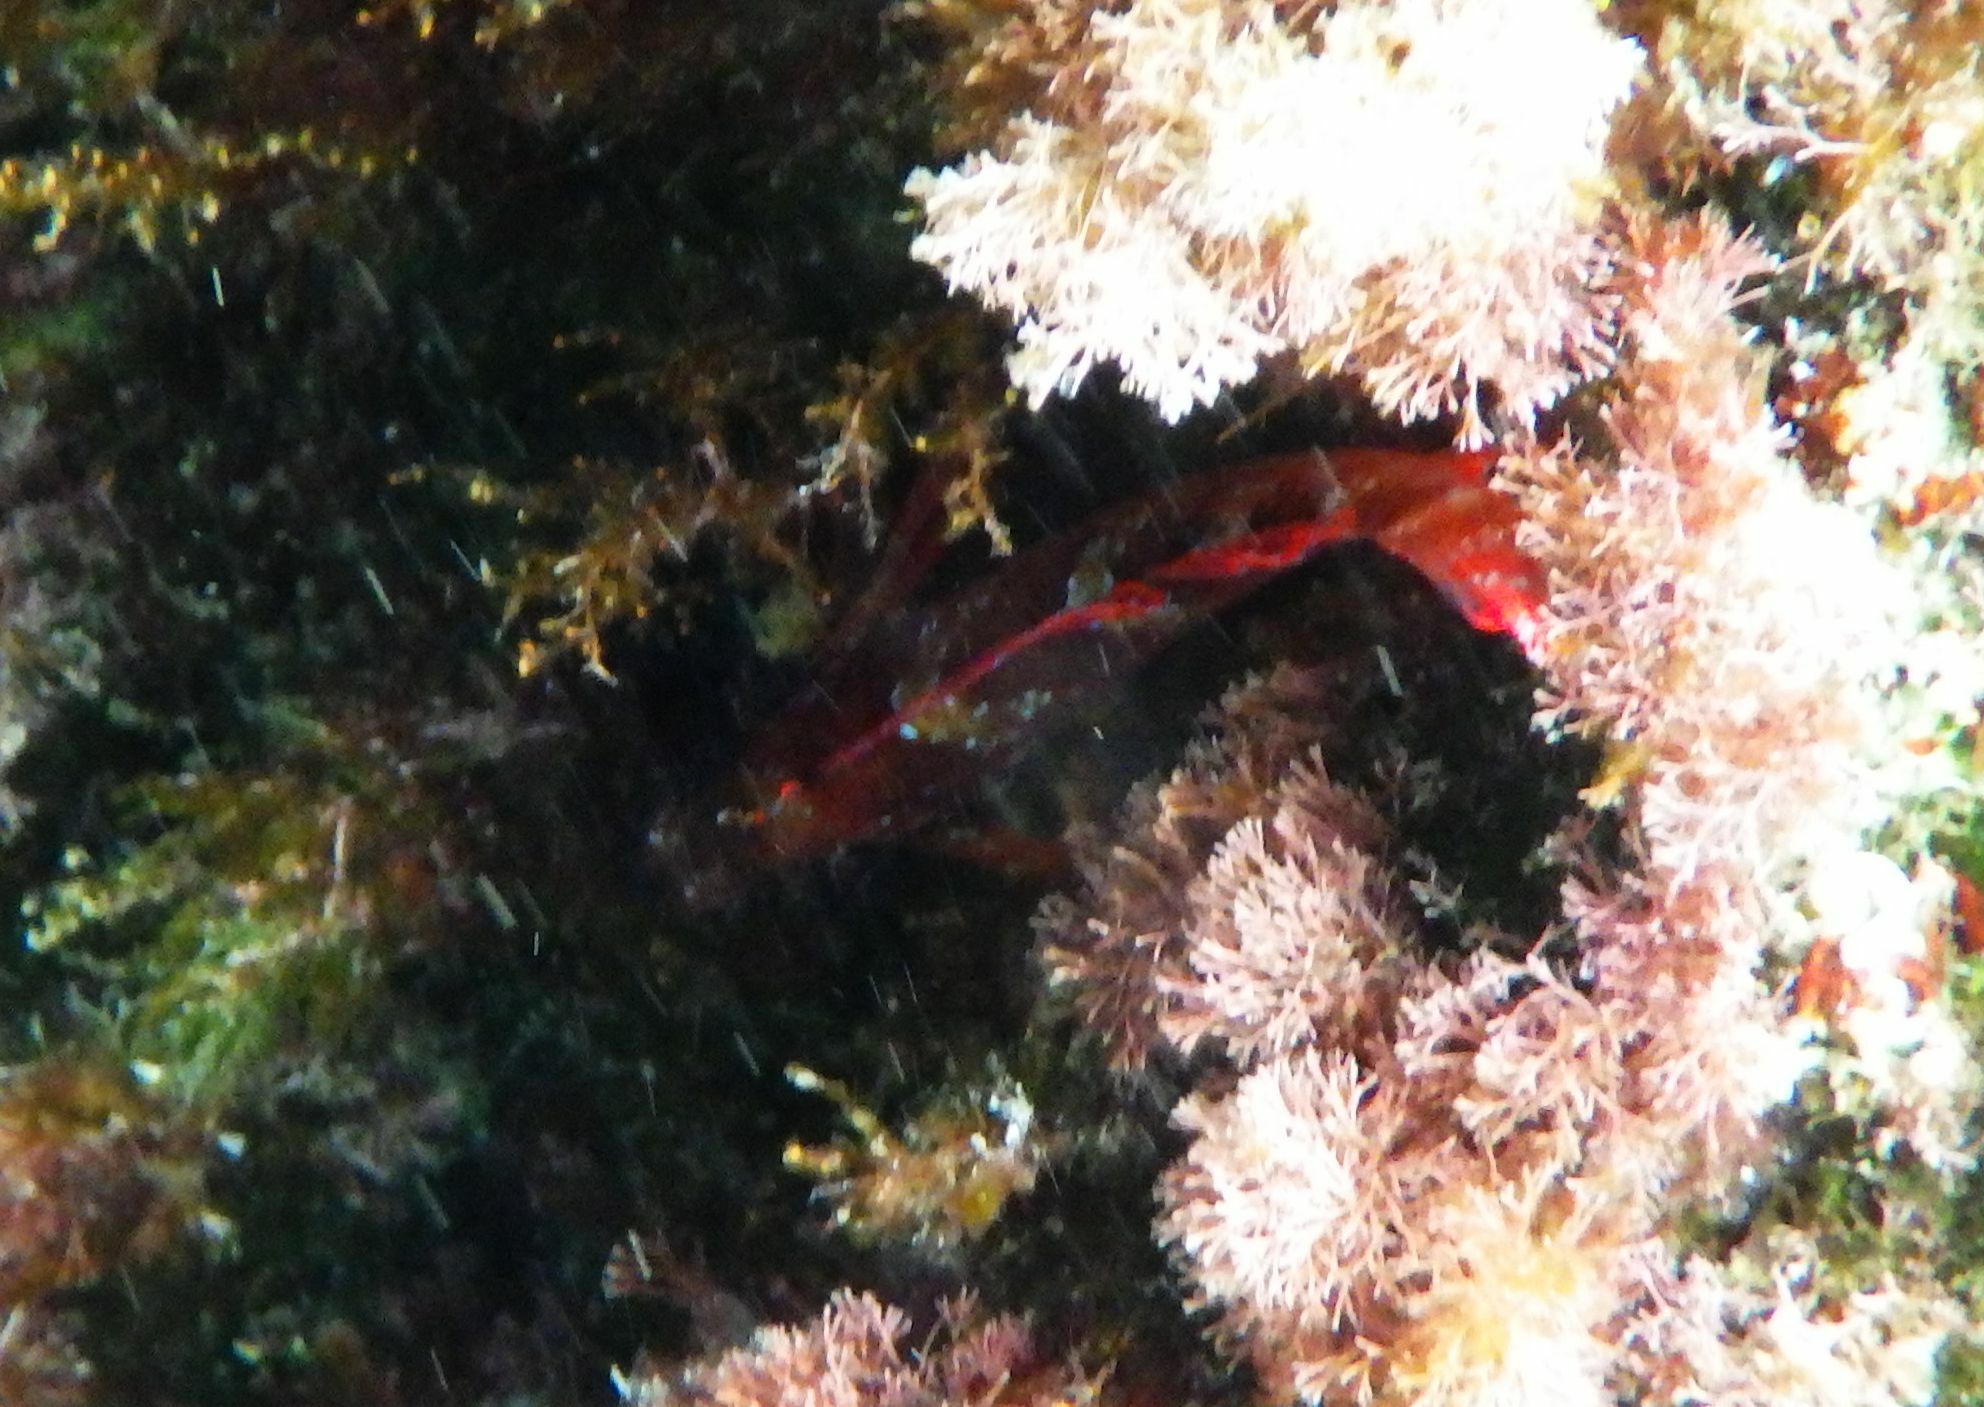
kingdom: Animalia
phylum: Chordata
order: Perciformes
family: Tripterygiidae
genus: Tripterygion
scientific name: Tripterygion tripteronotum
